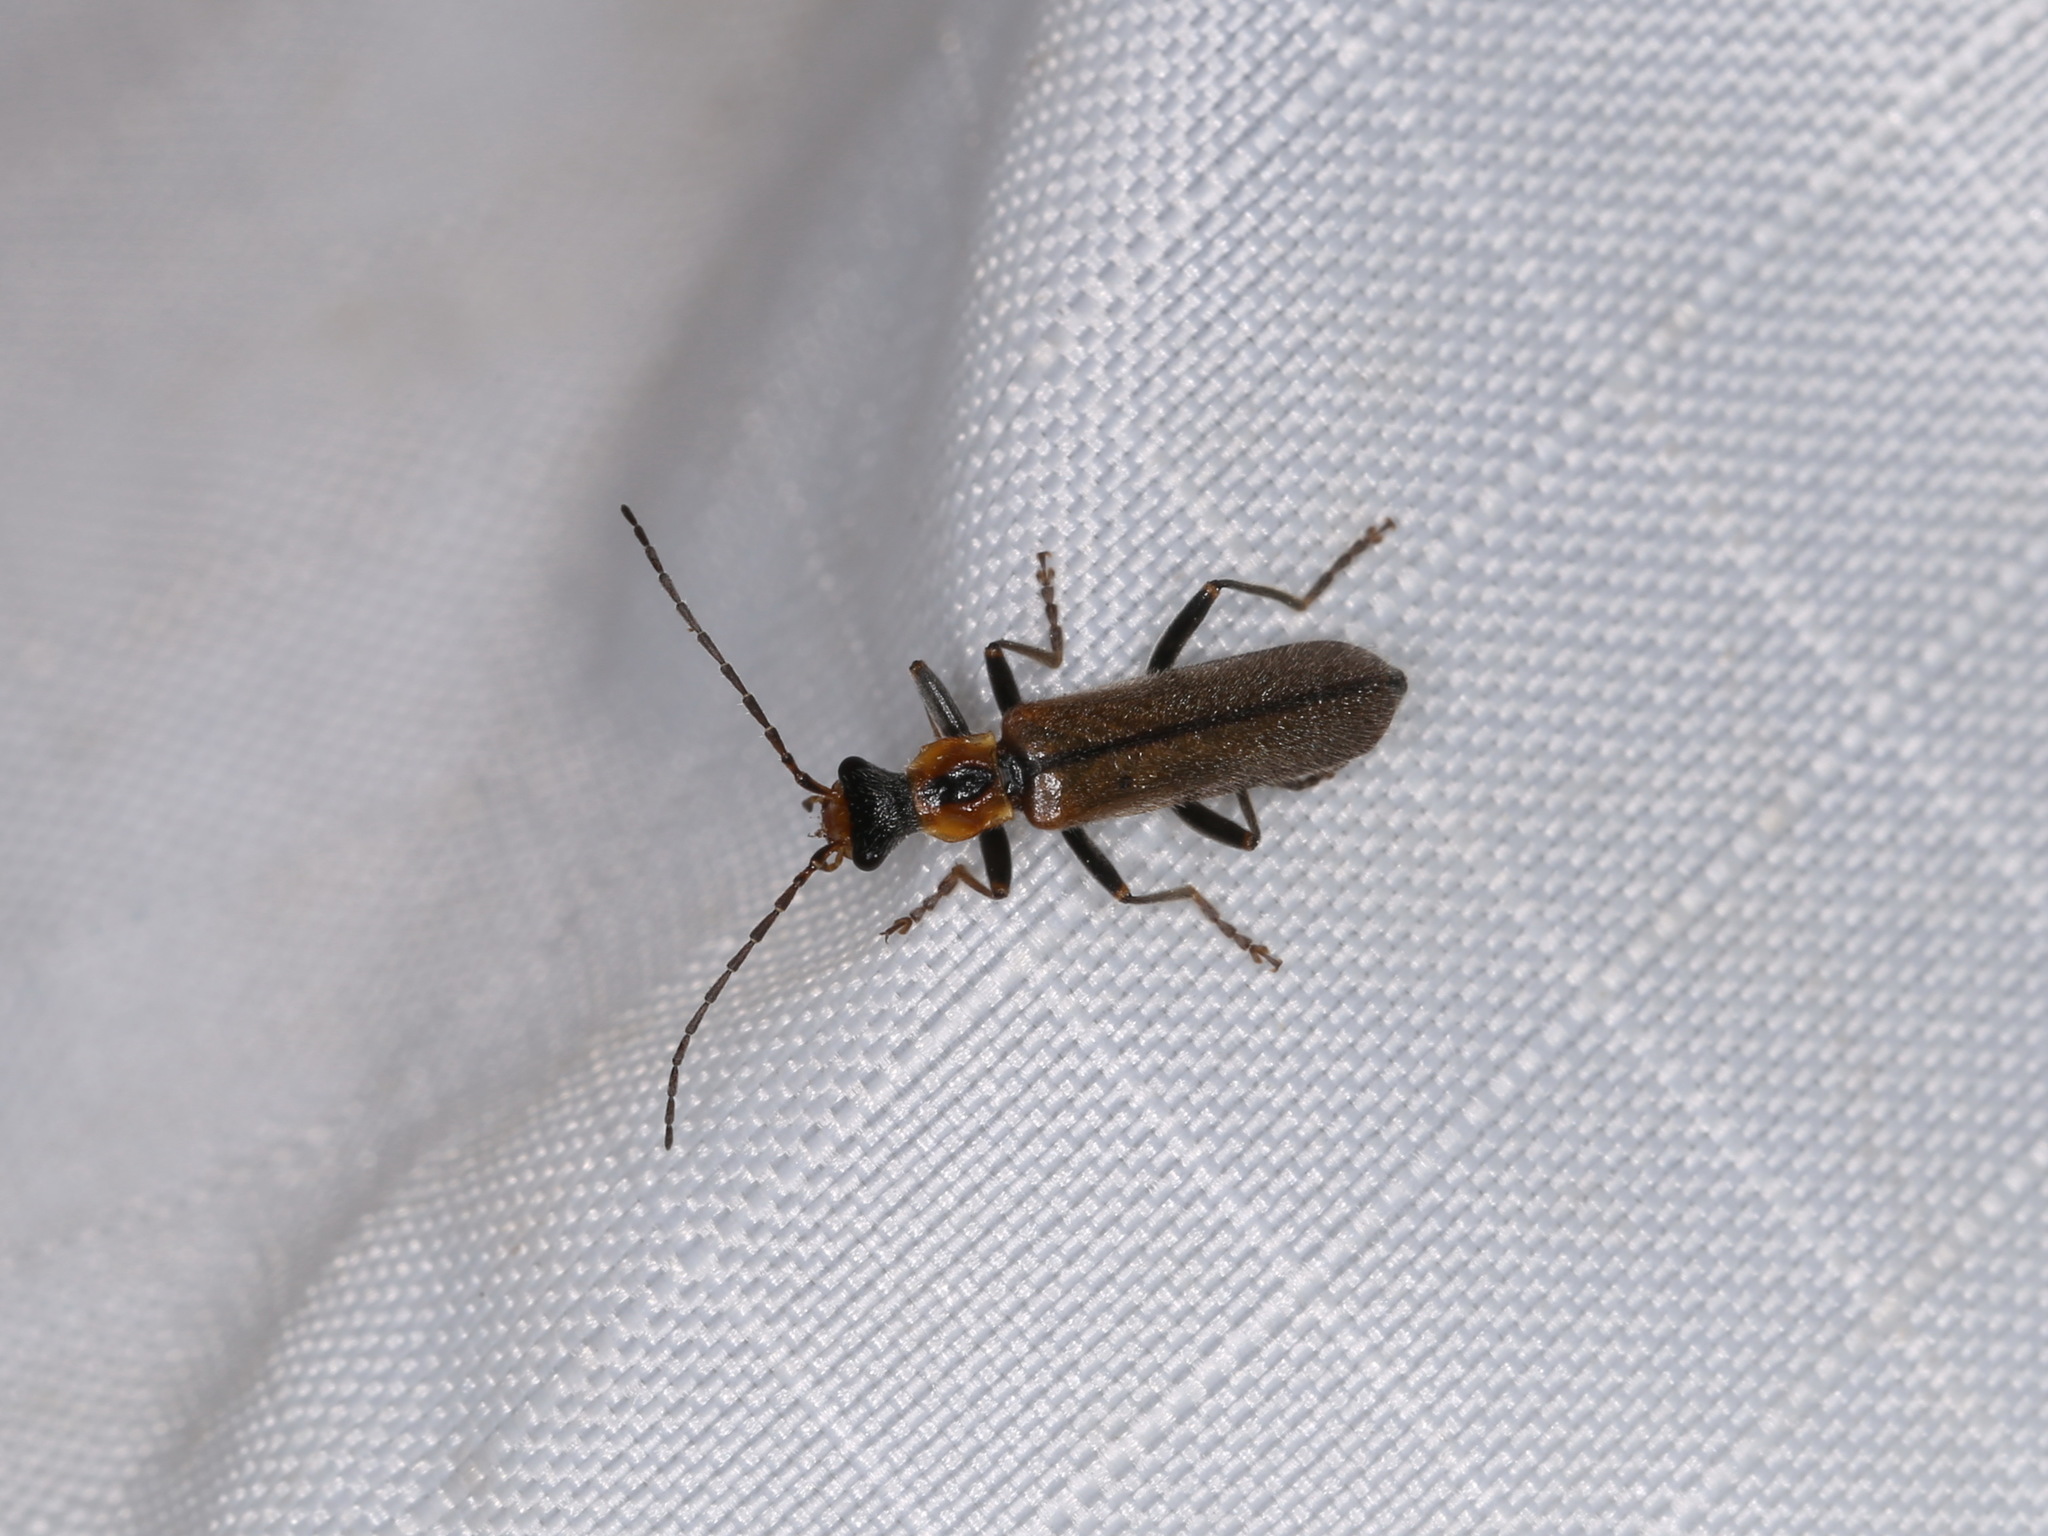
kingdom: Animalia
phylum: Arthropoda
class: Insecta
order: Coleoptera
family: Cantharidae
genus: Dichelotarsus
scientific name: Dichelotarsus cavicollis
